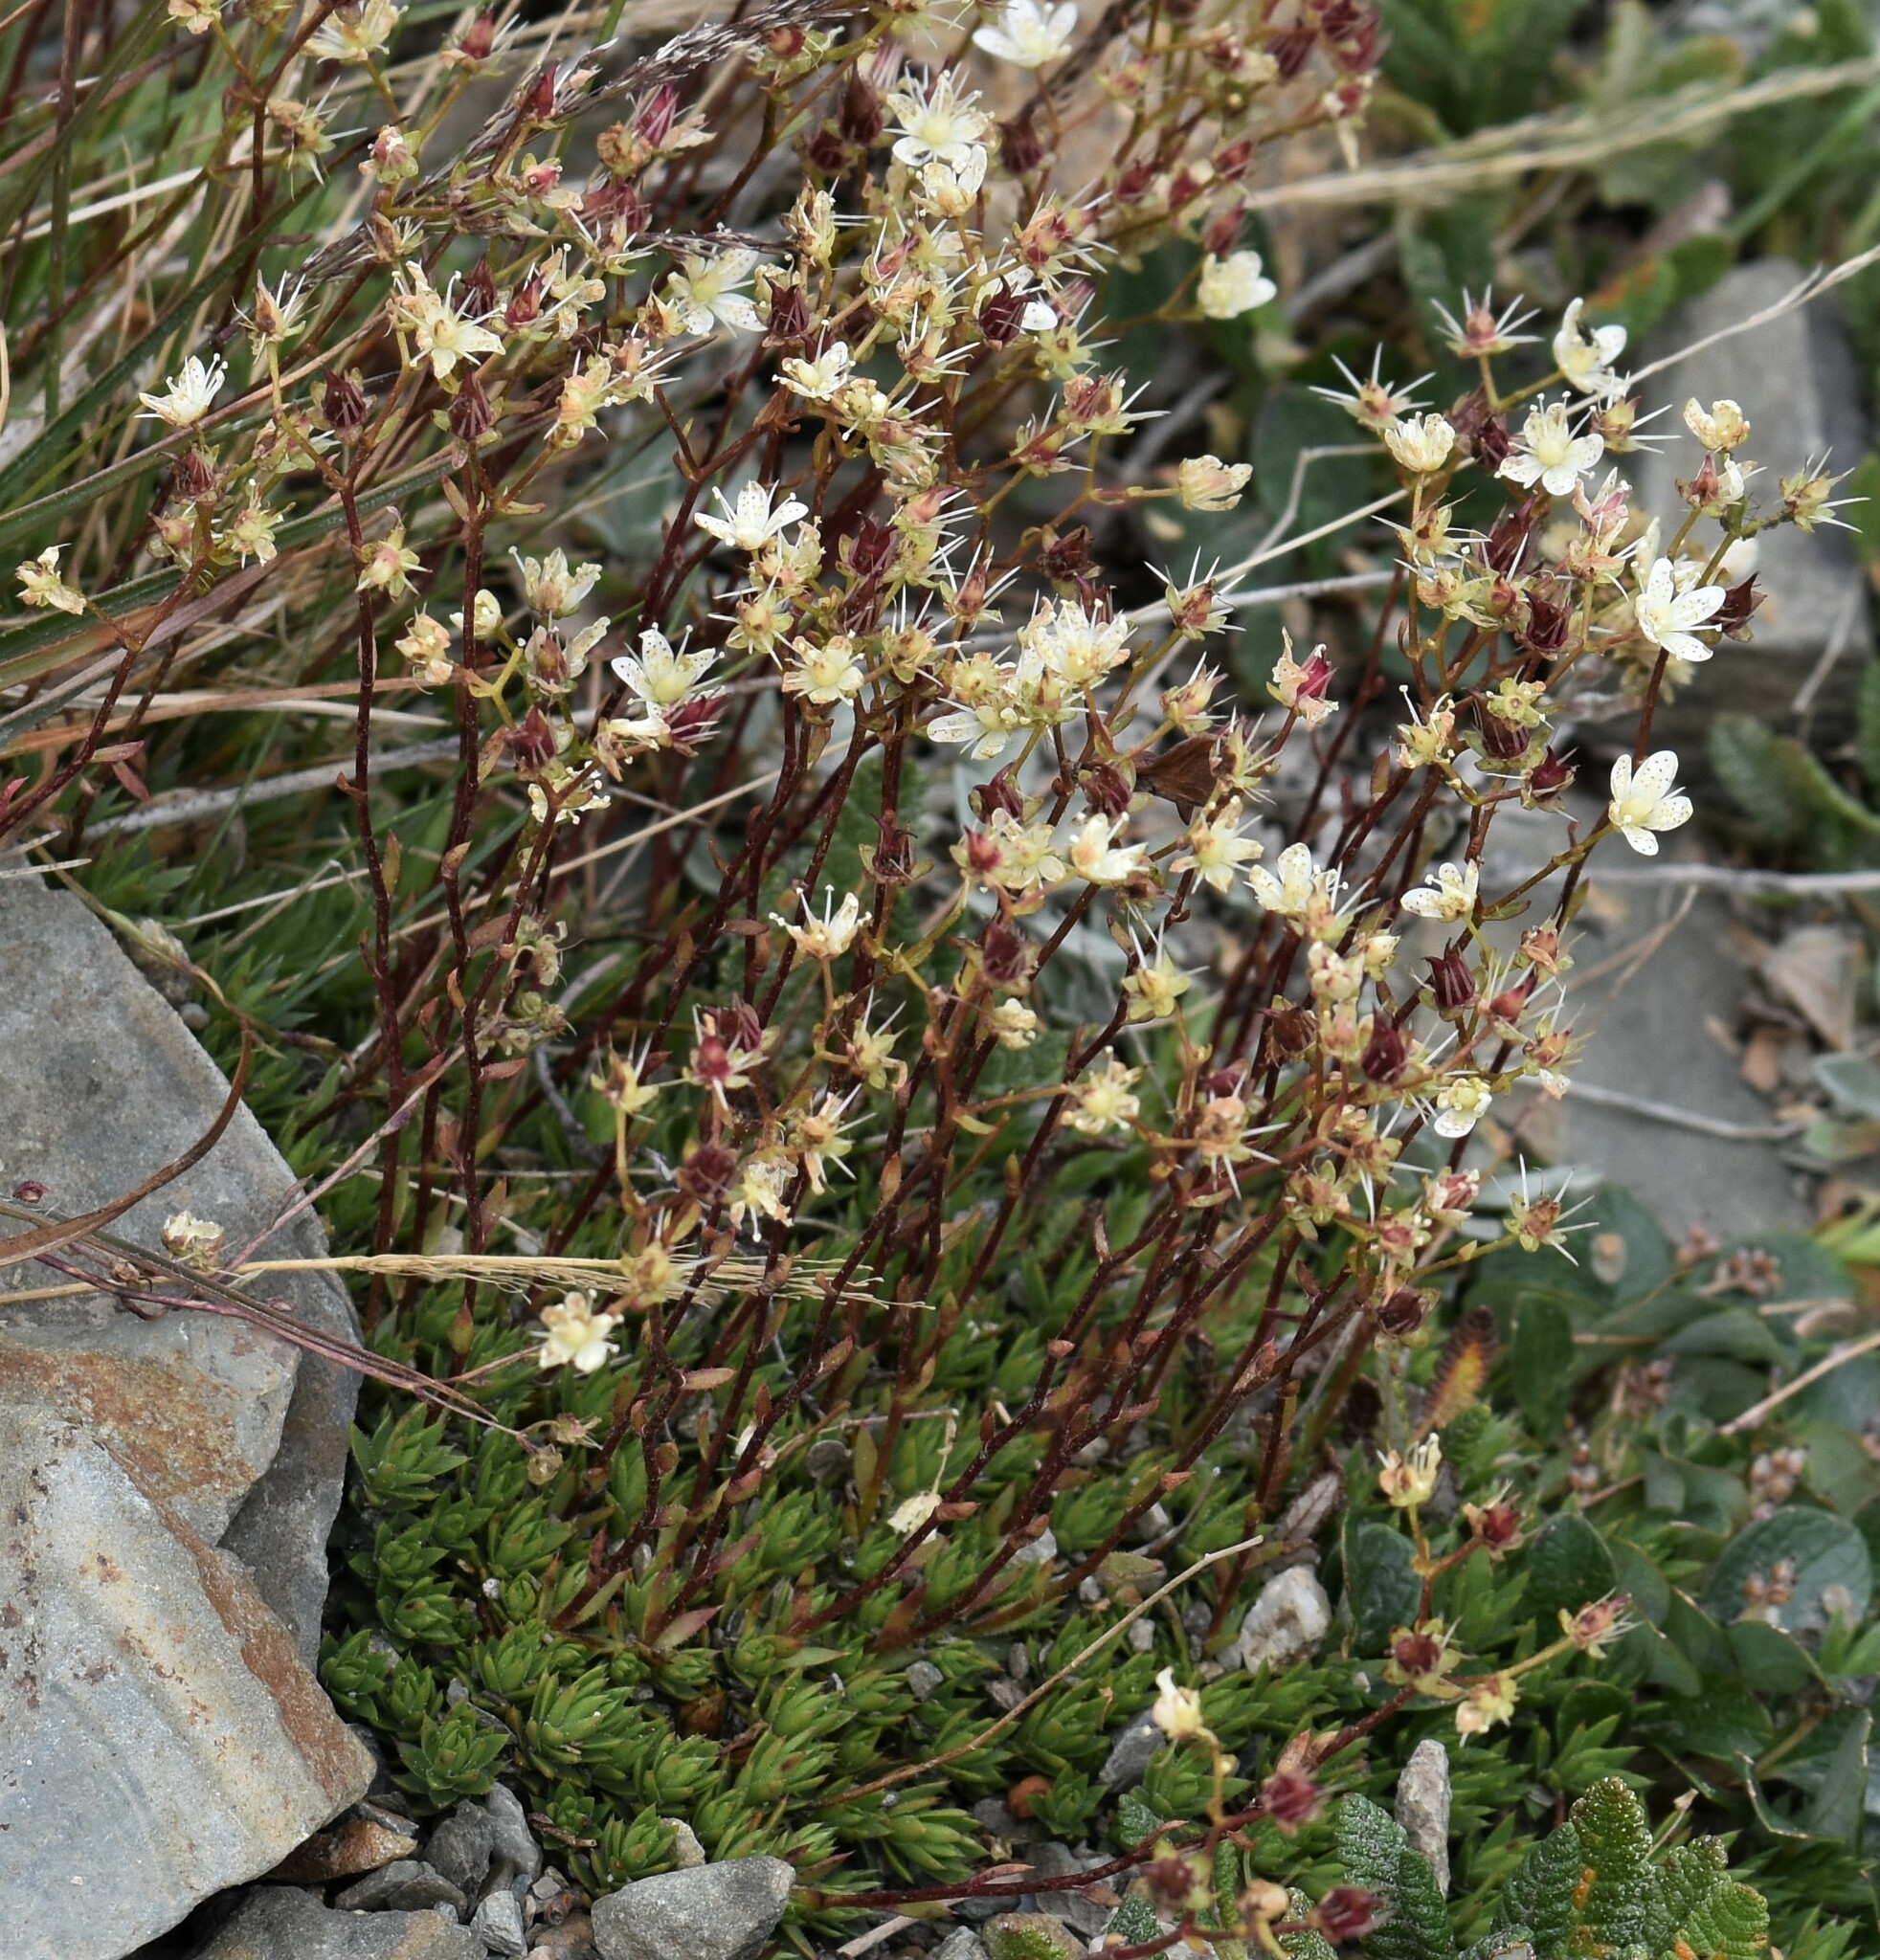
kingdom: Plantae
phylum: Tracheophyta
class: Magnoliopsida
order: Saxifragales
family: Saxifragaceae
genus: Saxifraga
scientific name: Saxifraga bronchialis
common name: Matted saxifrage
